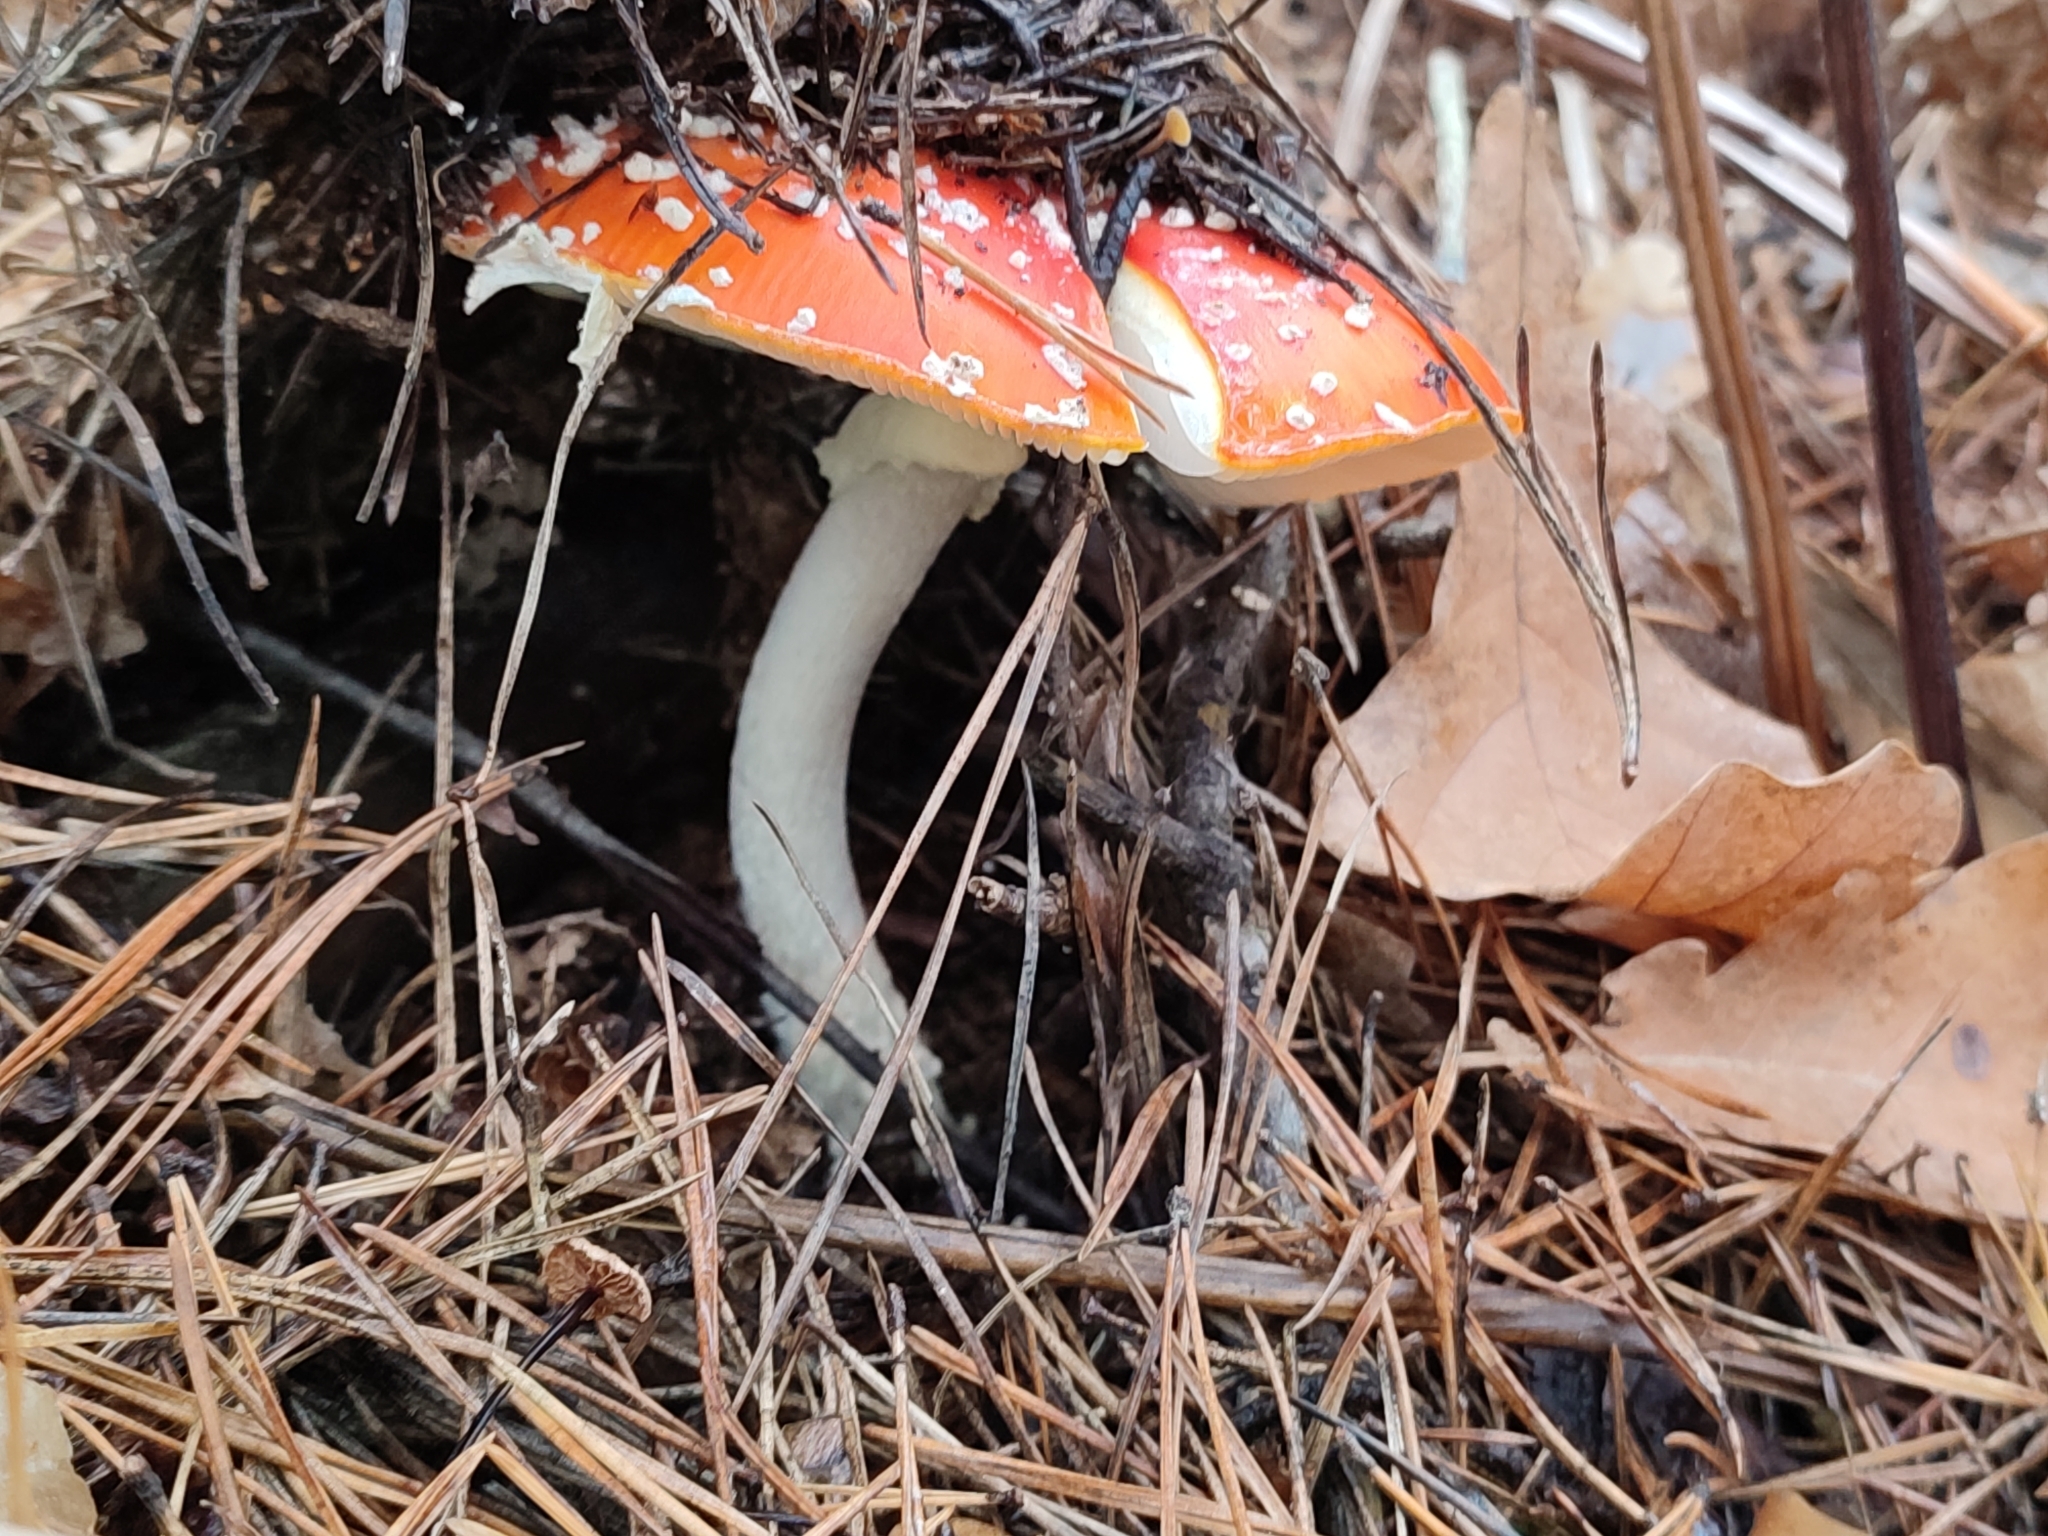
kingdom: Fungi
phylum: Basidiomycota
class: Agaricomycetes
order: Agaricales
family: Amanitaceae
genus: Amanita
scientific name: Amanita muscaria
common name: Fly agaric
